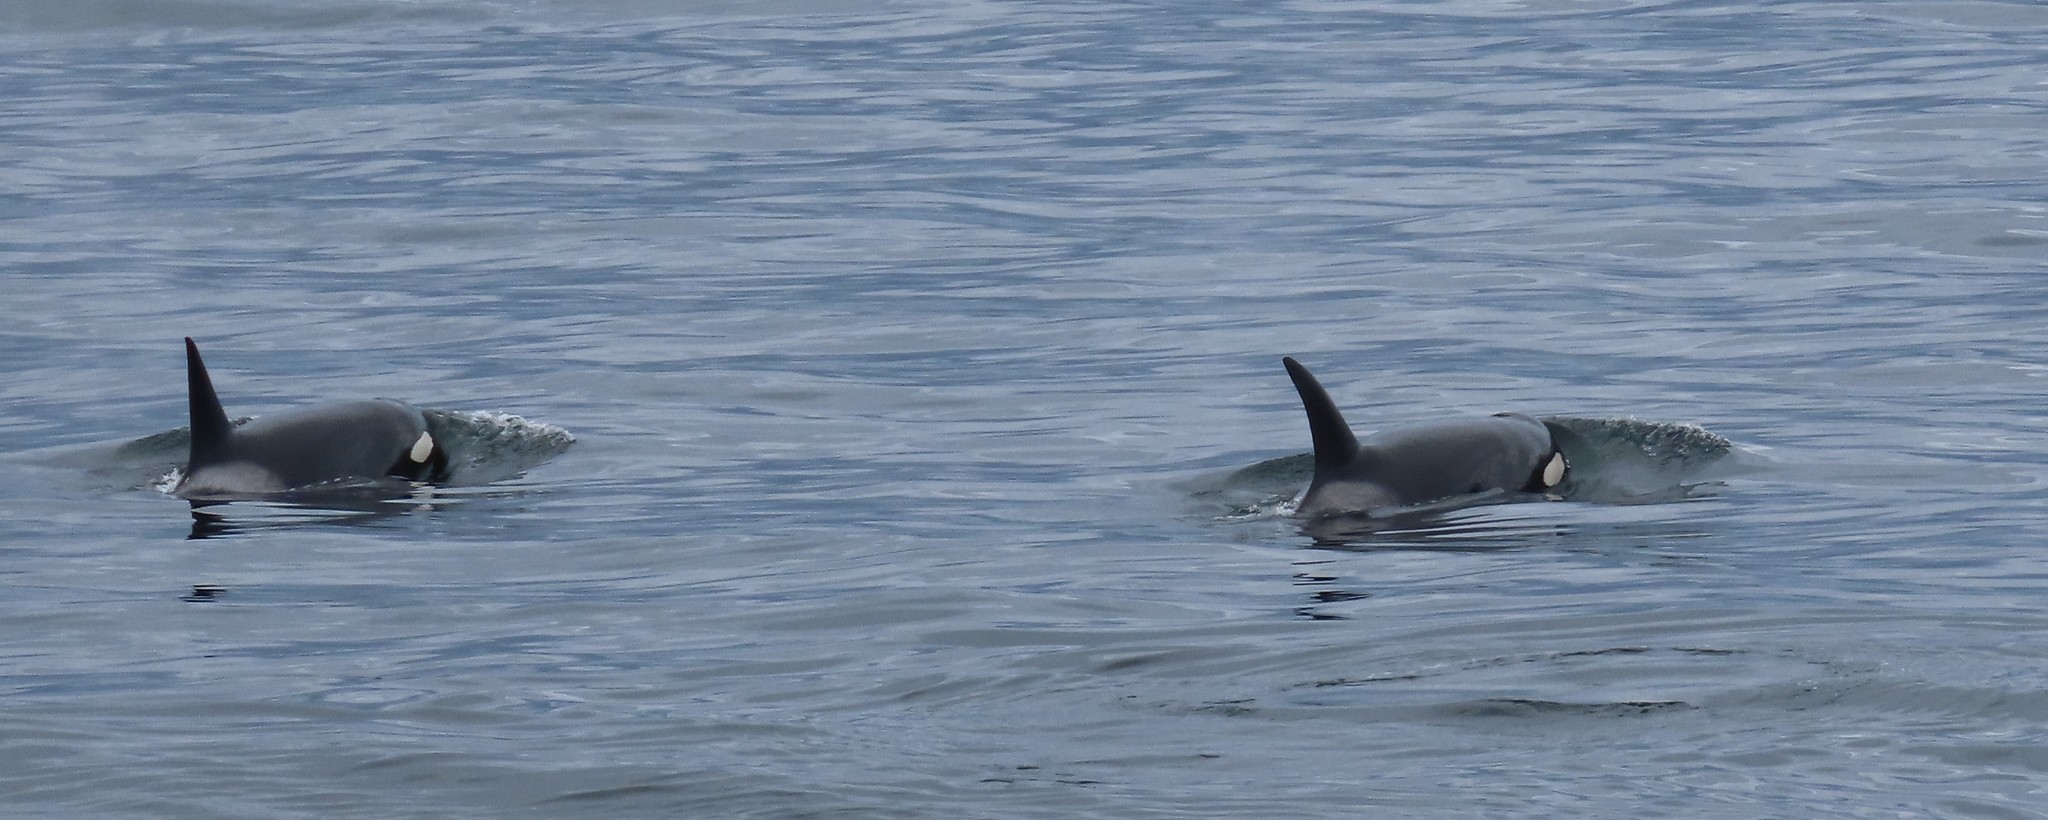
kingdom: Animalia
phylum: Chordata
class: Mammalia
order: Cetacea
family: Delphinidae
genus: Orcinus
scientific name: Orcinus orca
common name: Killer whale
